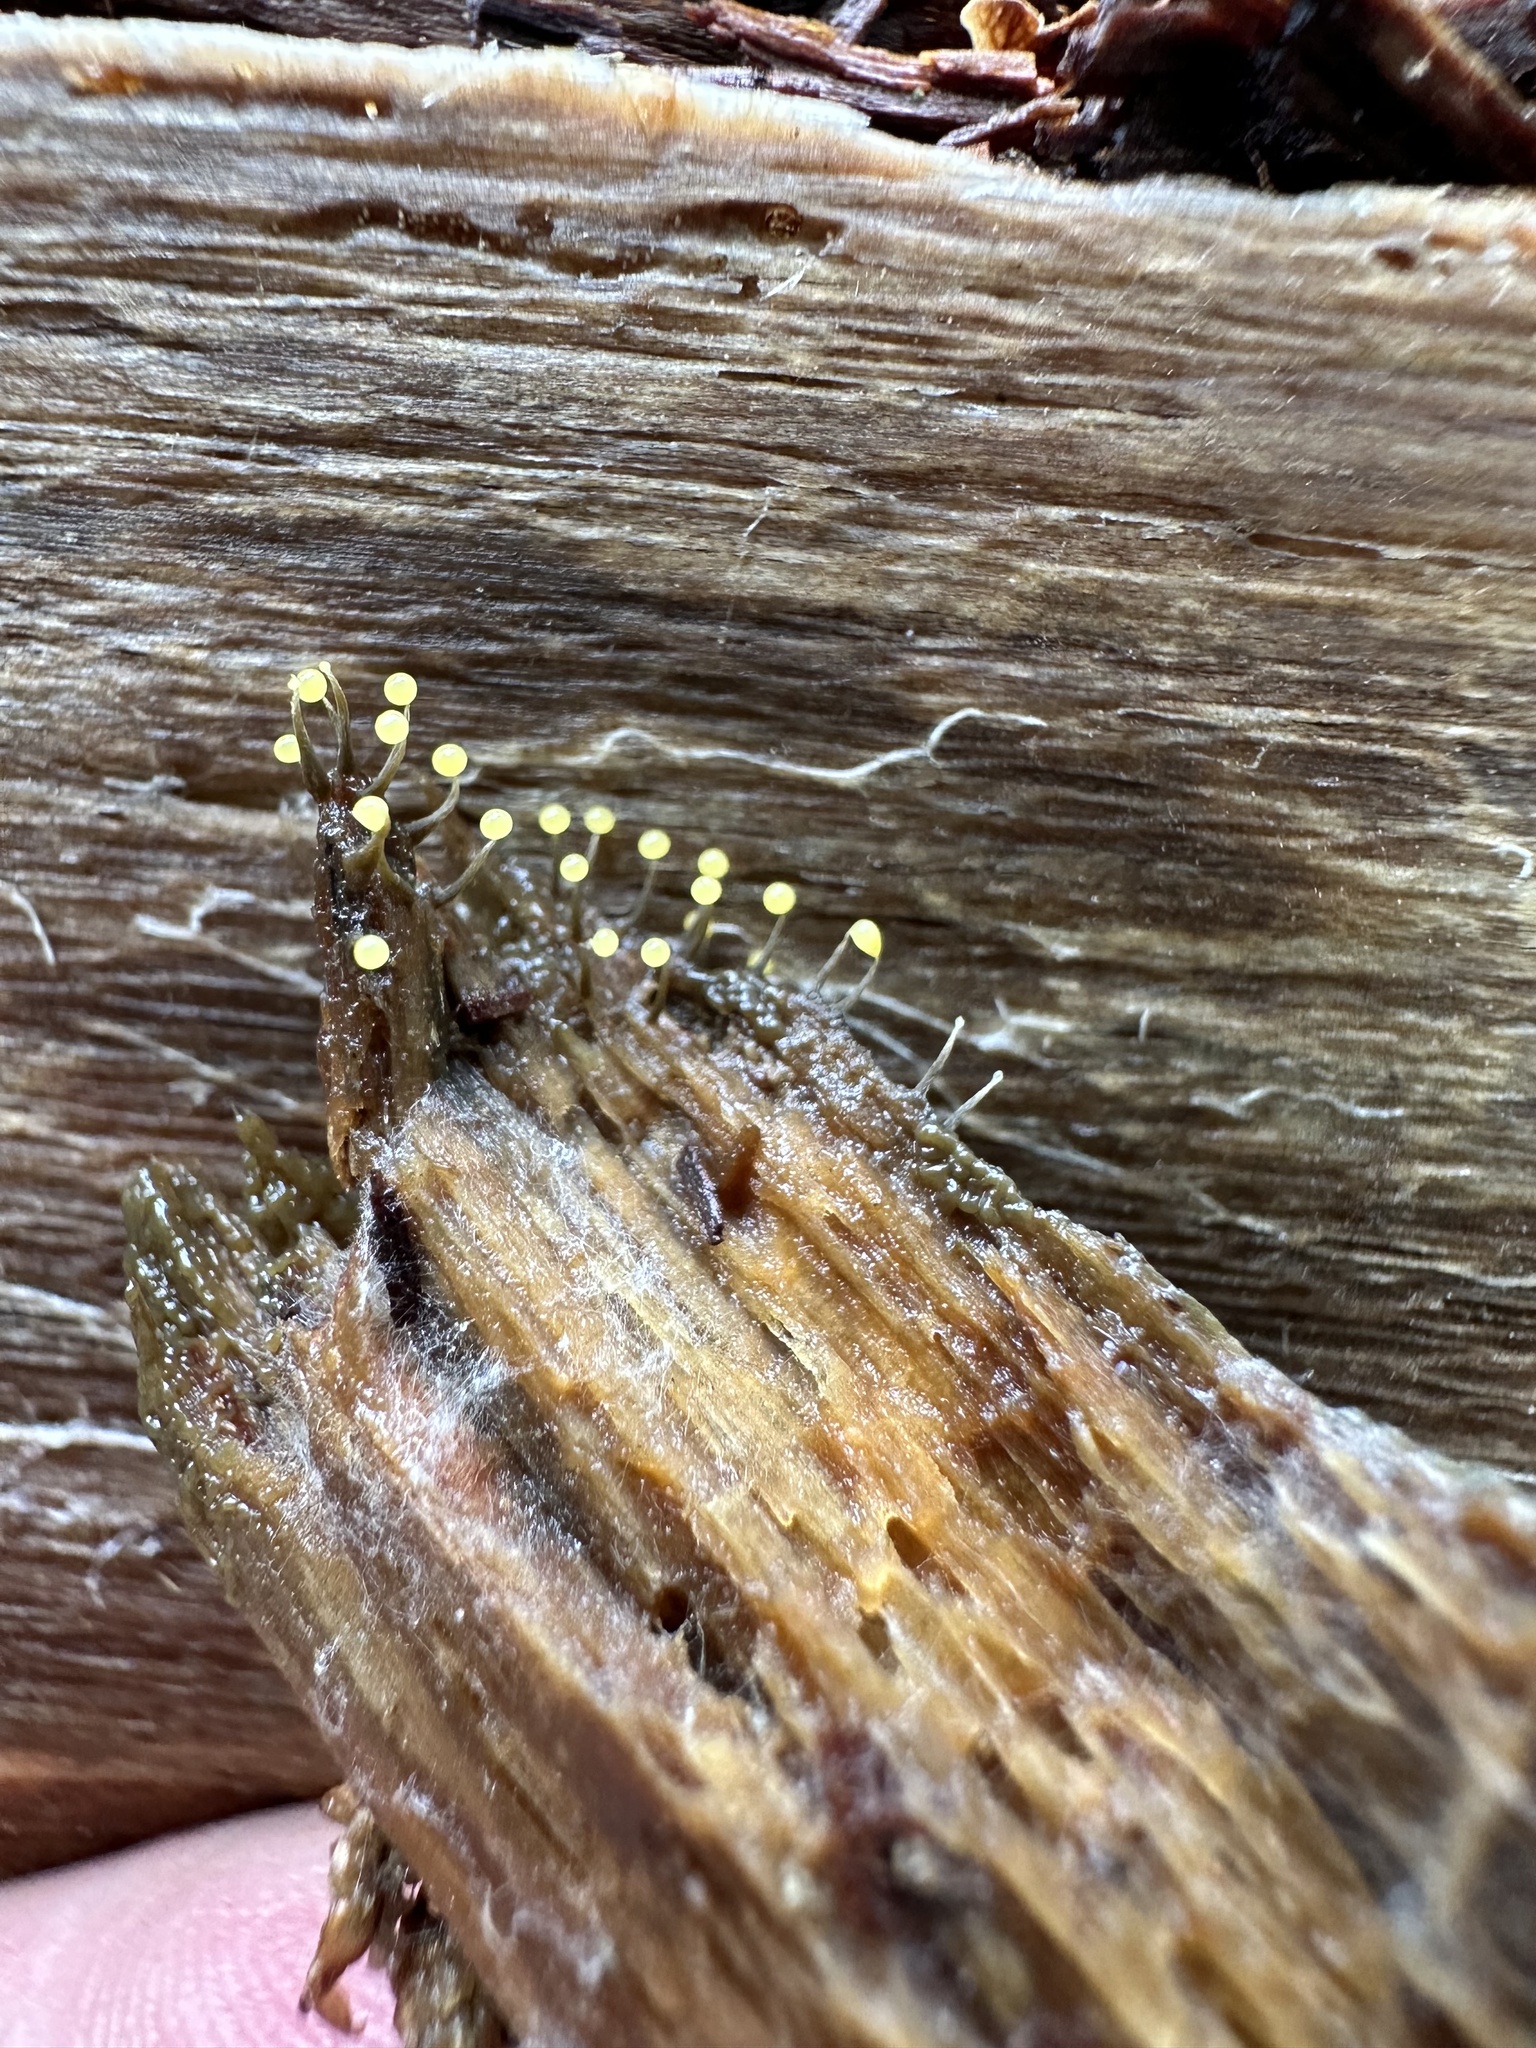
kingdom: Protozoa
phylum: Mycetozoa
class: Myxomycetes
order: Physarales
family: Physaraceae
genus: Physarum
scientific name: Physarum viride
